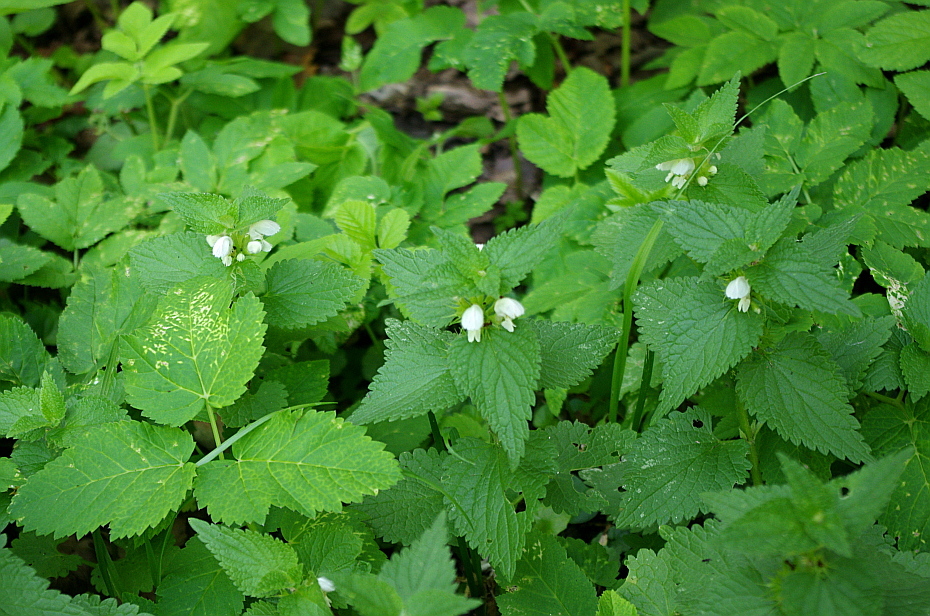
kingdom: Plantae
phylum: Tracheophyta
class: Magnoliopsida
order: Lamiales
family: Lamiaceae
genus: Lamium
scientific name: Lamium album
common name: White dead-nettle
